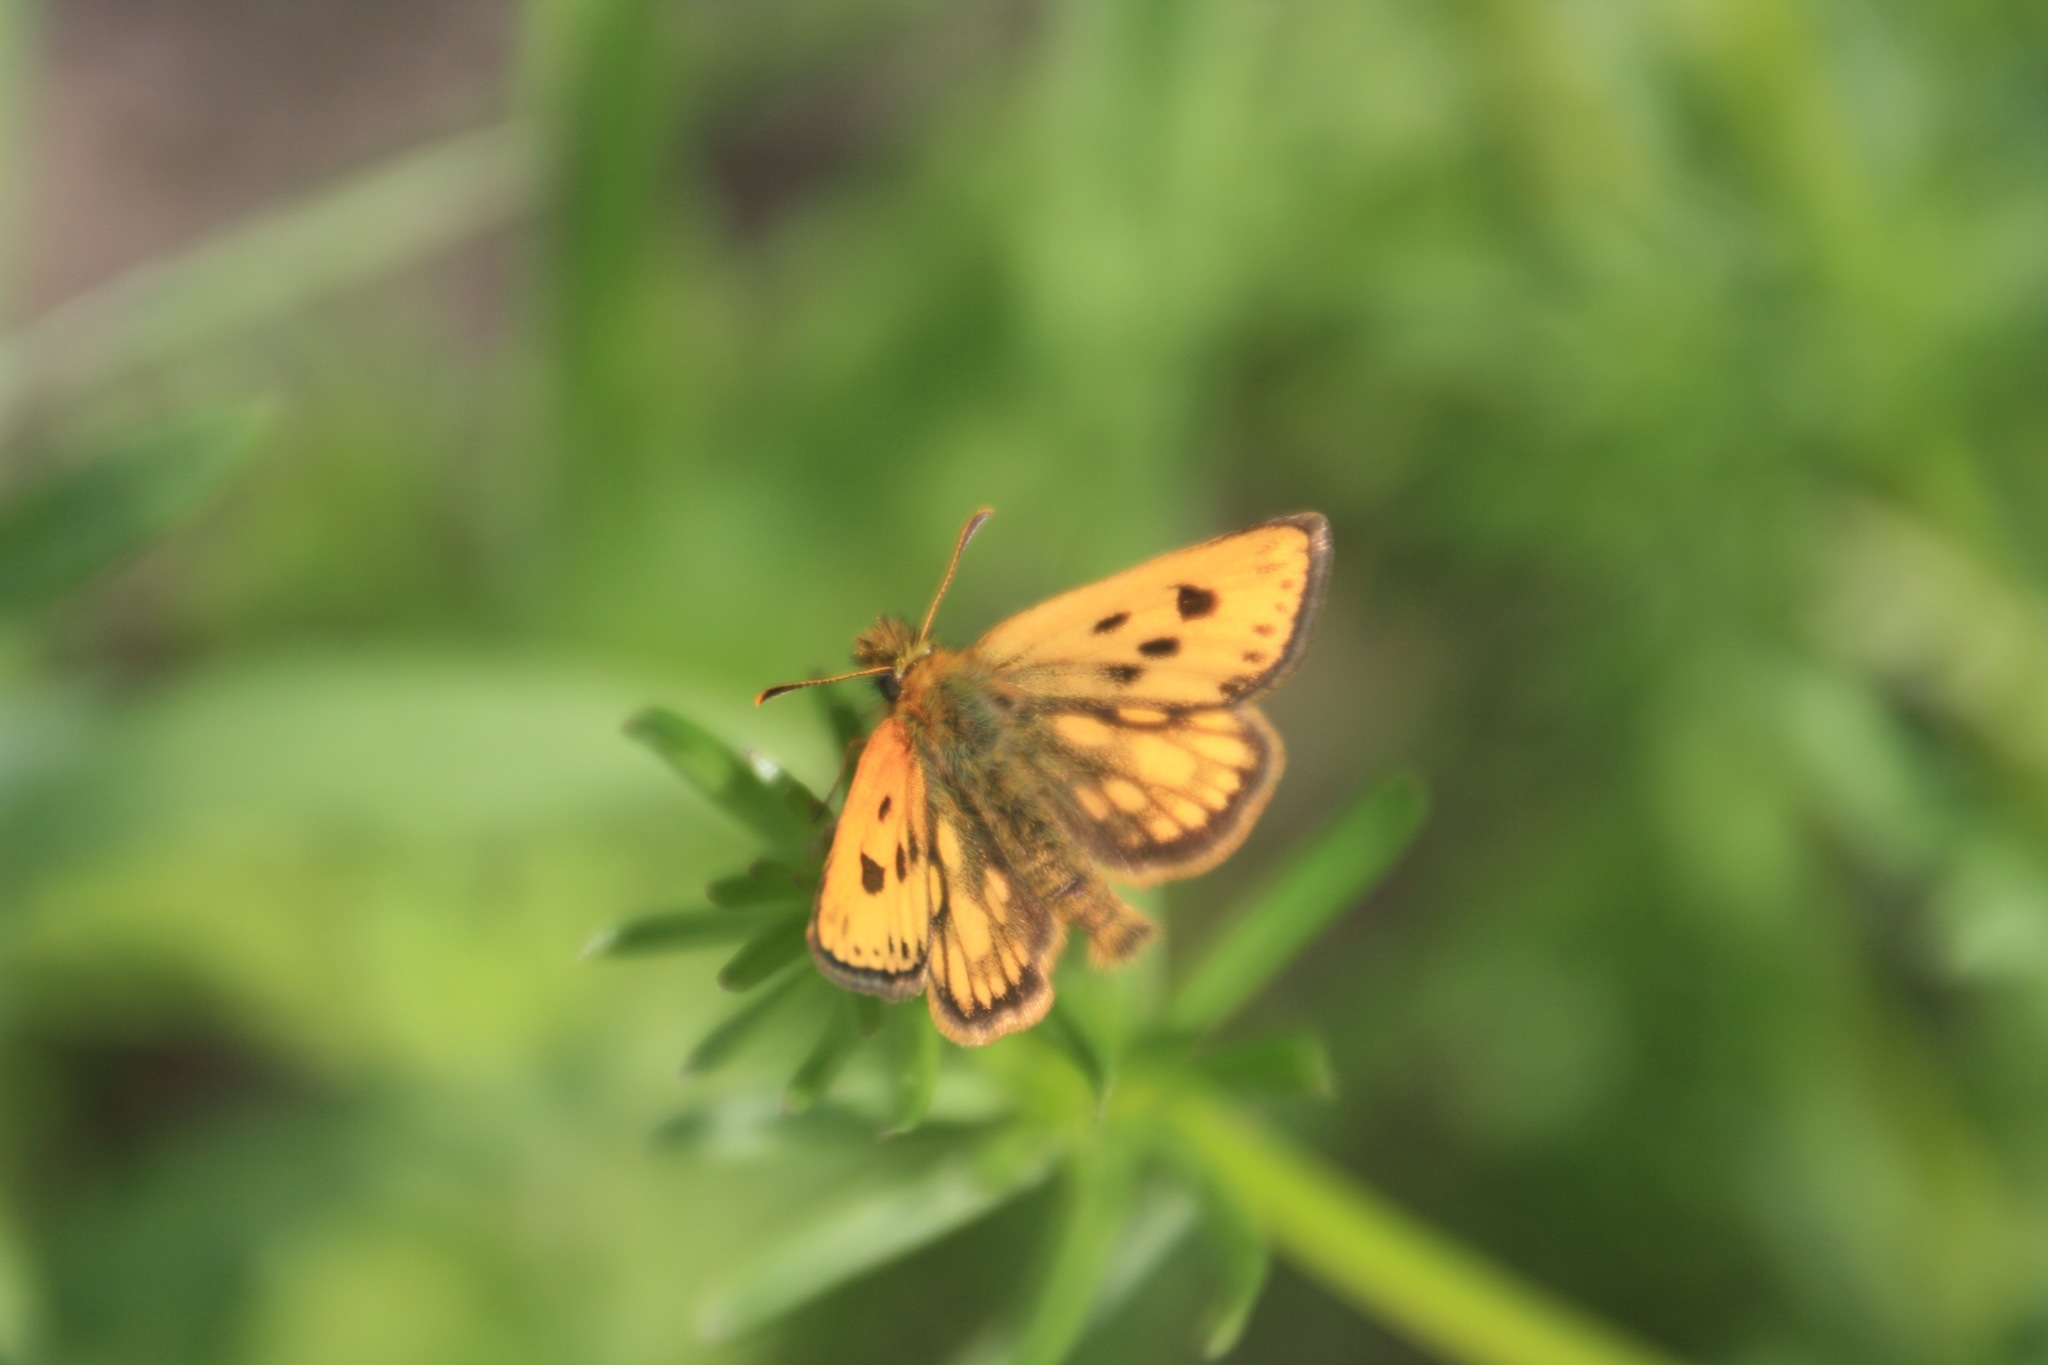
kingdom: Animalia
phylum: Arthropoda
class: Insecta
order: Lepidoptera
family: Hesperiidae
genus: Carterocephalus
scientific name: Carterocephalus silvicola
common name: Northern chequered skipper
